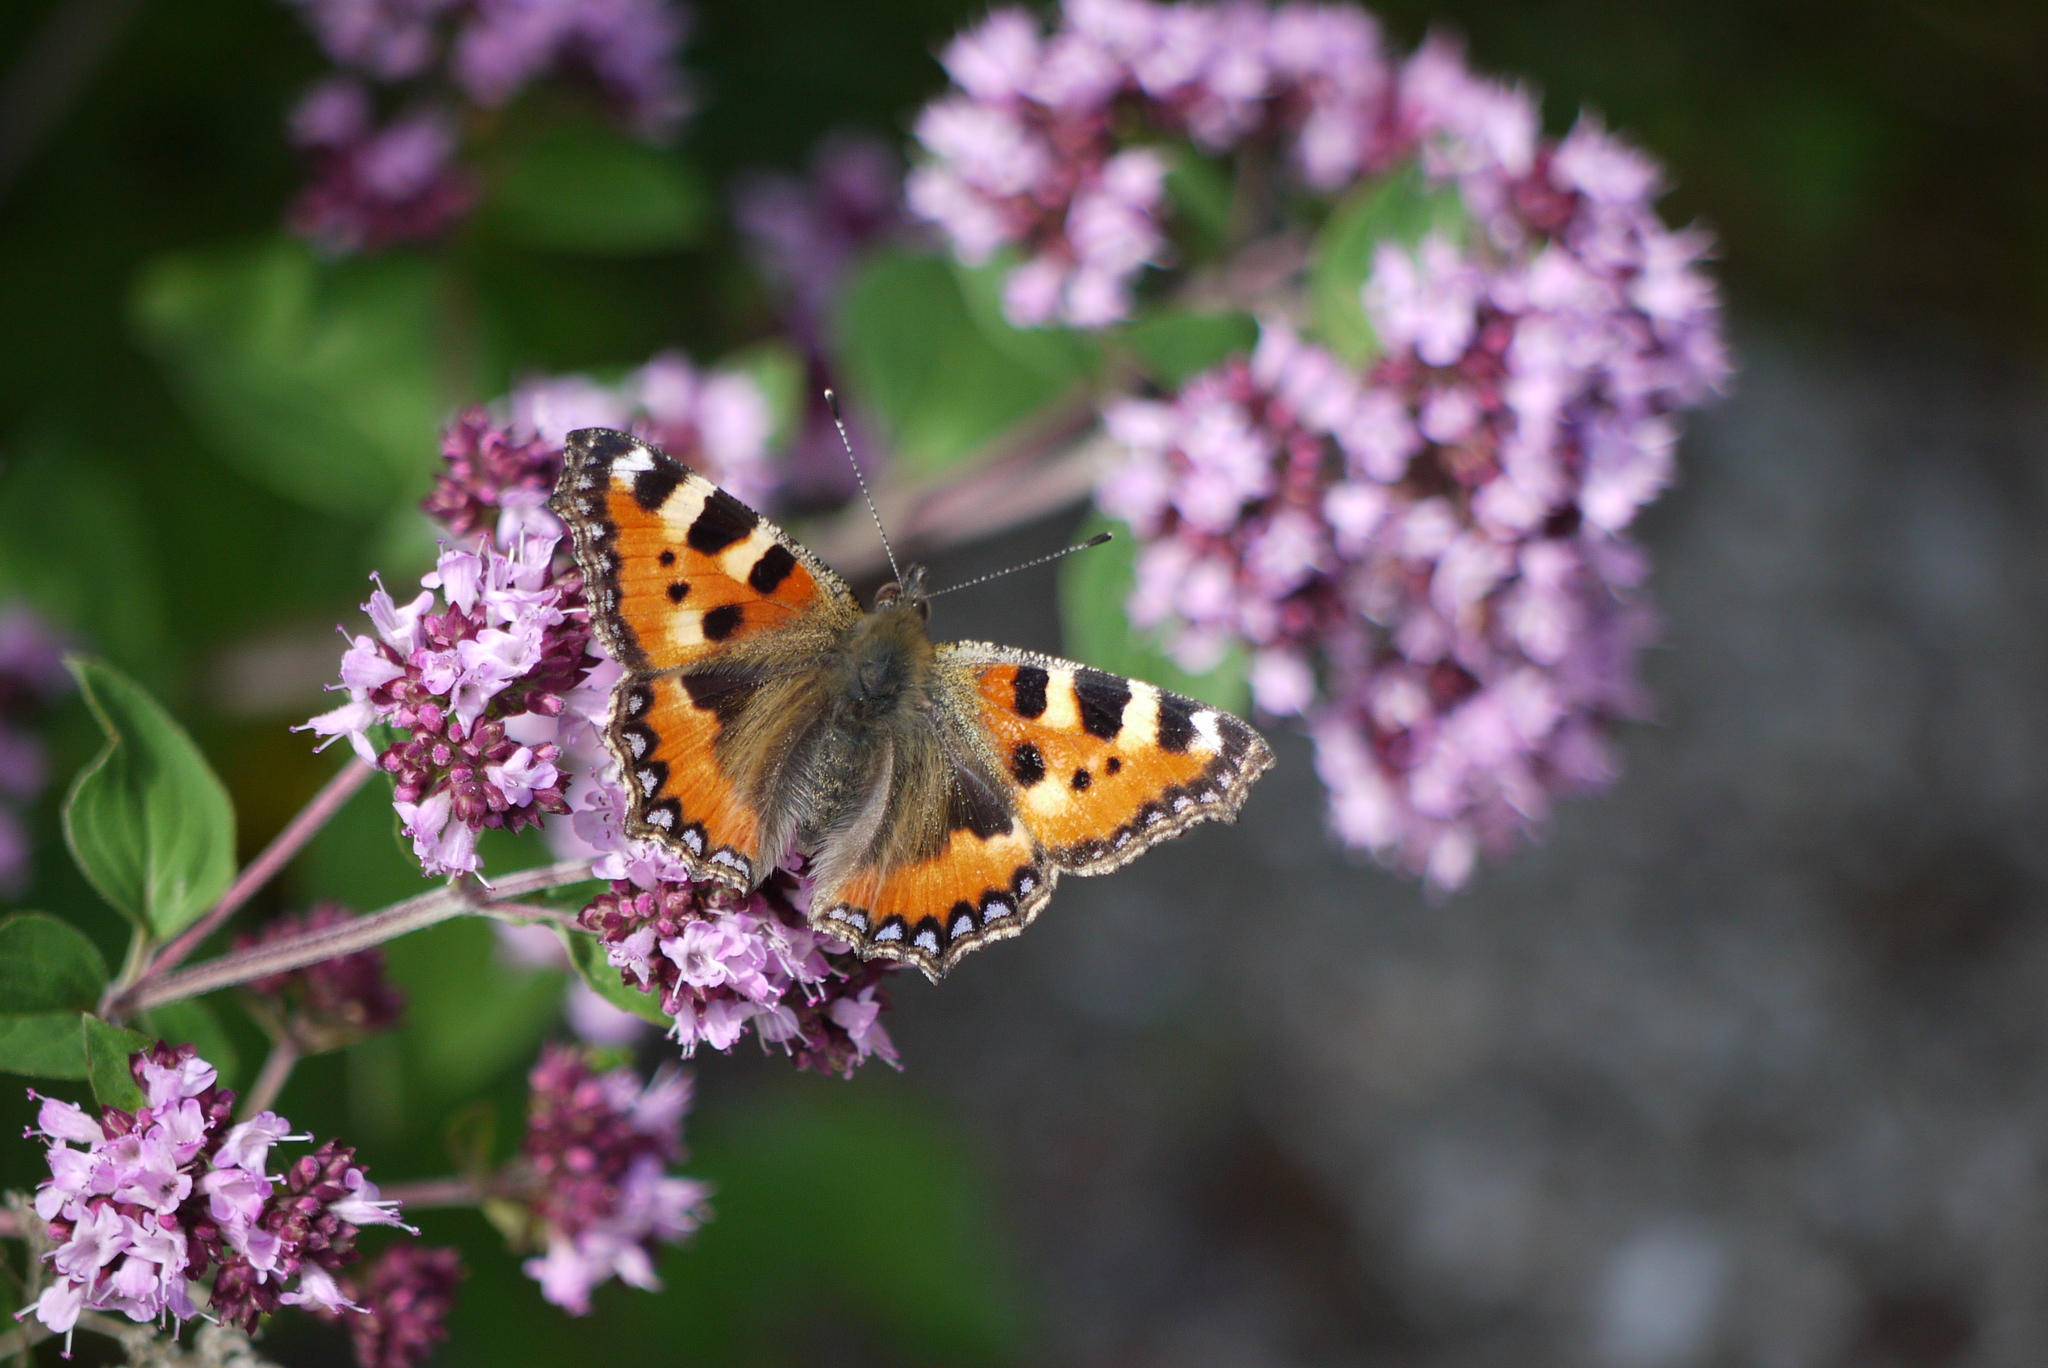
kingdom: Animalia
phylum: Arthropoda
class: Insecta
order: Lepidoptera
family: Nymphalidae
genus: Aglais
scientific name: Aglais urticae
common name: Small tortoiseshell
